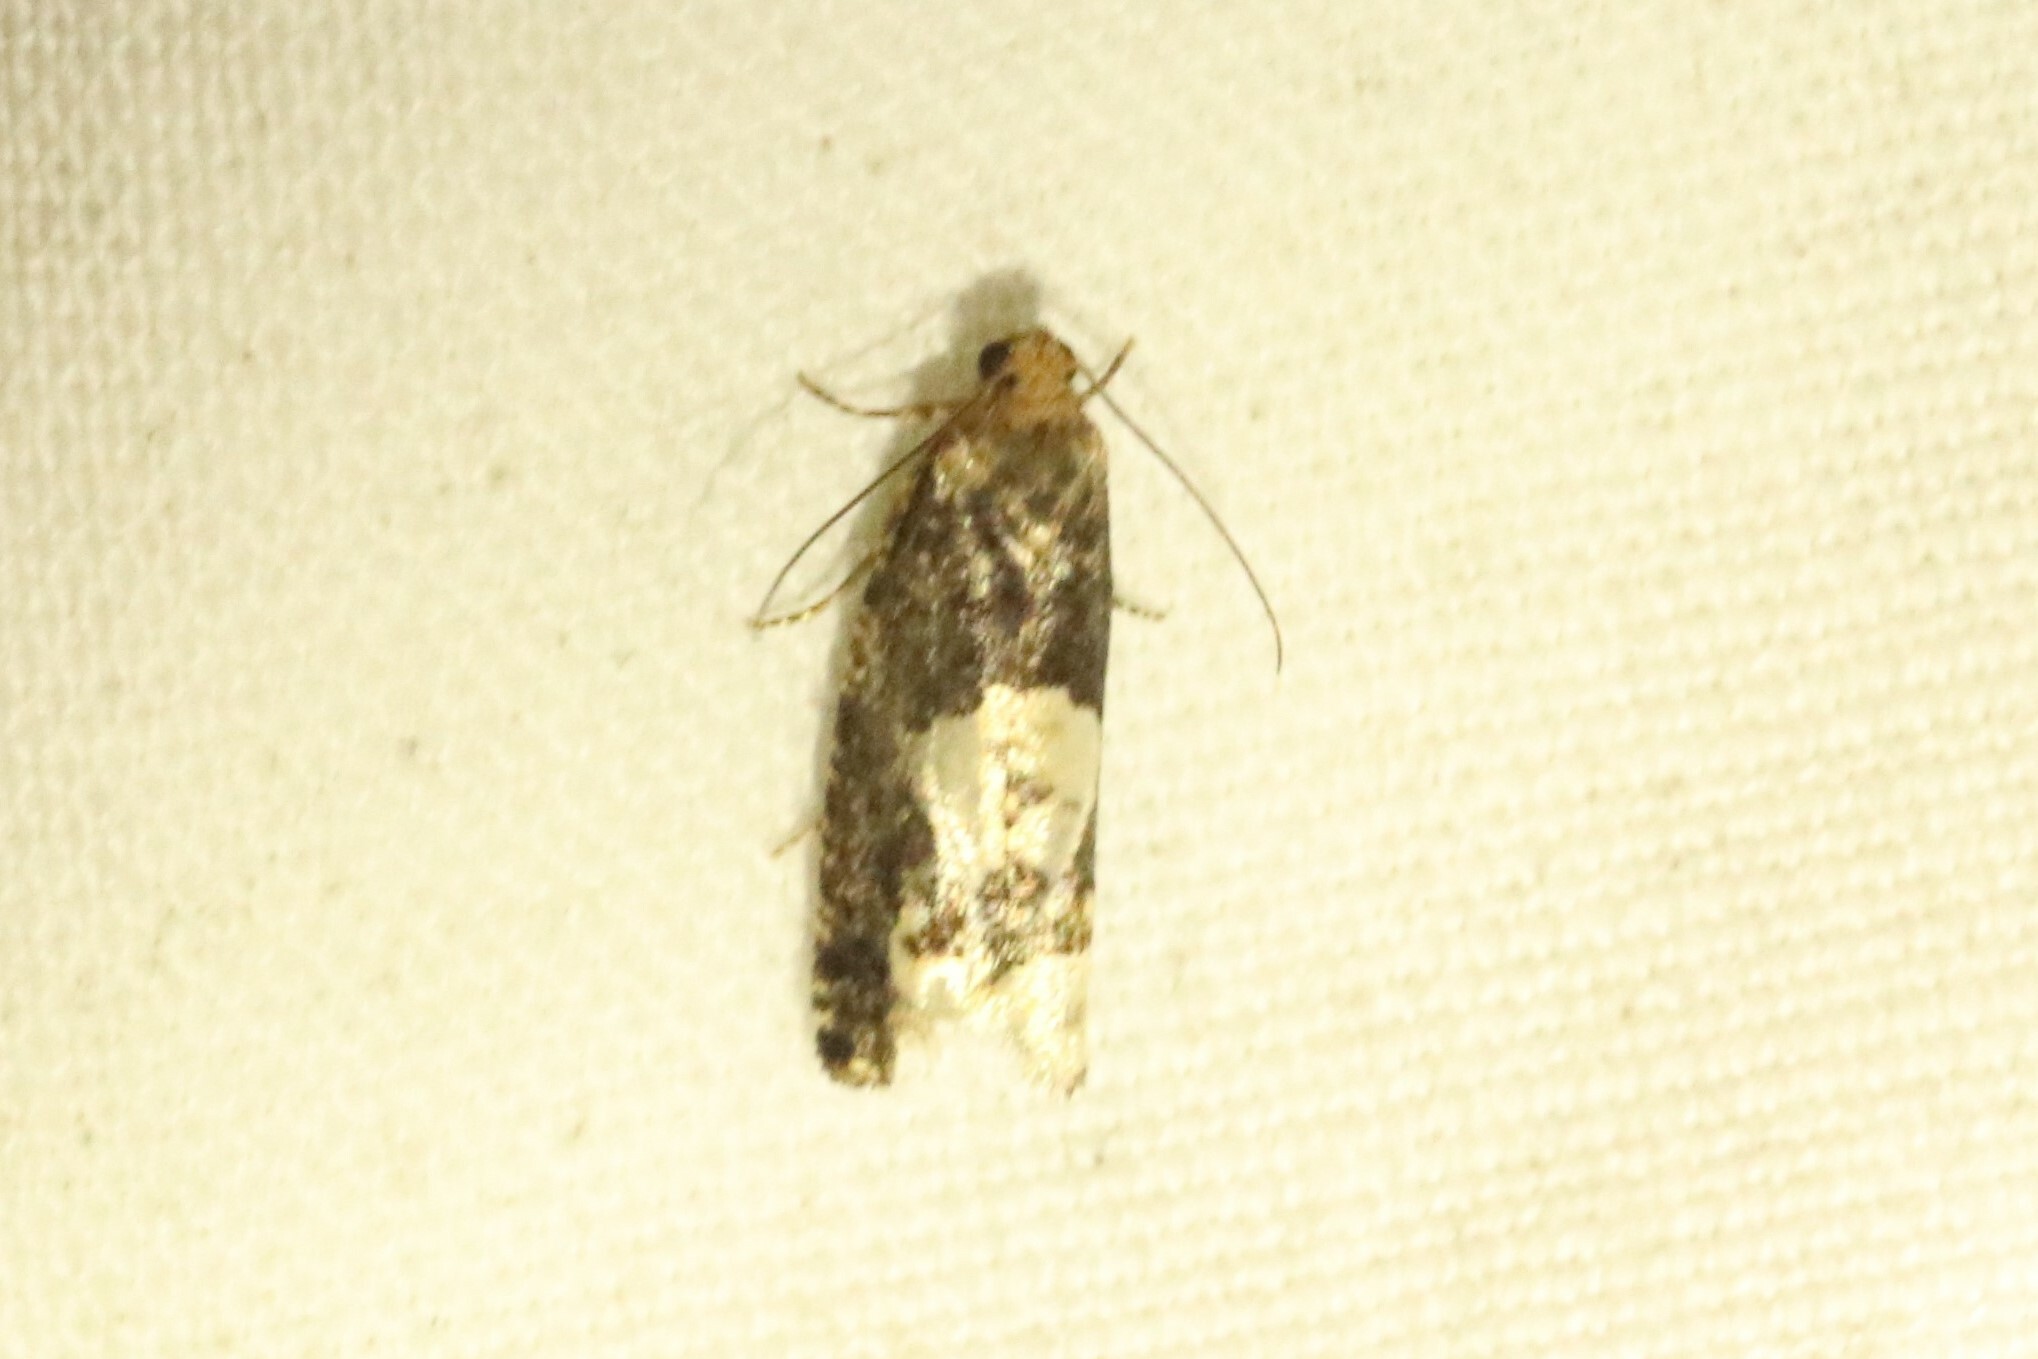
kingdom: Animalia
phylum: Arthropoda
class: Insecta
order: Lepidoptera
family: Tortricidae
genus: Epinotia
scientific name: Epinotia trigonella
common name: White-blotch bell
